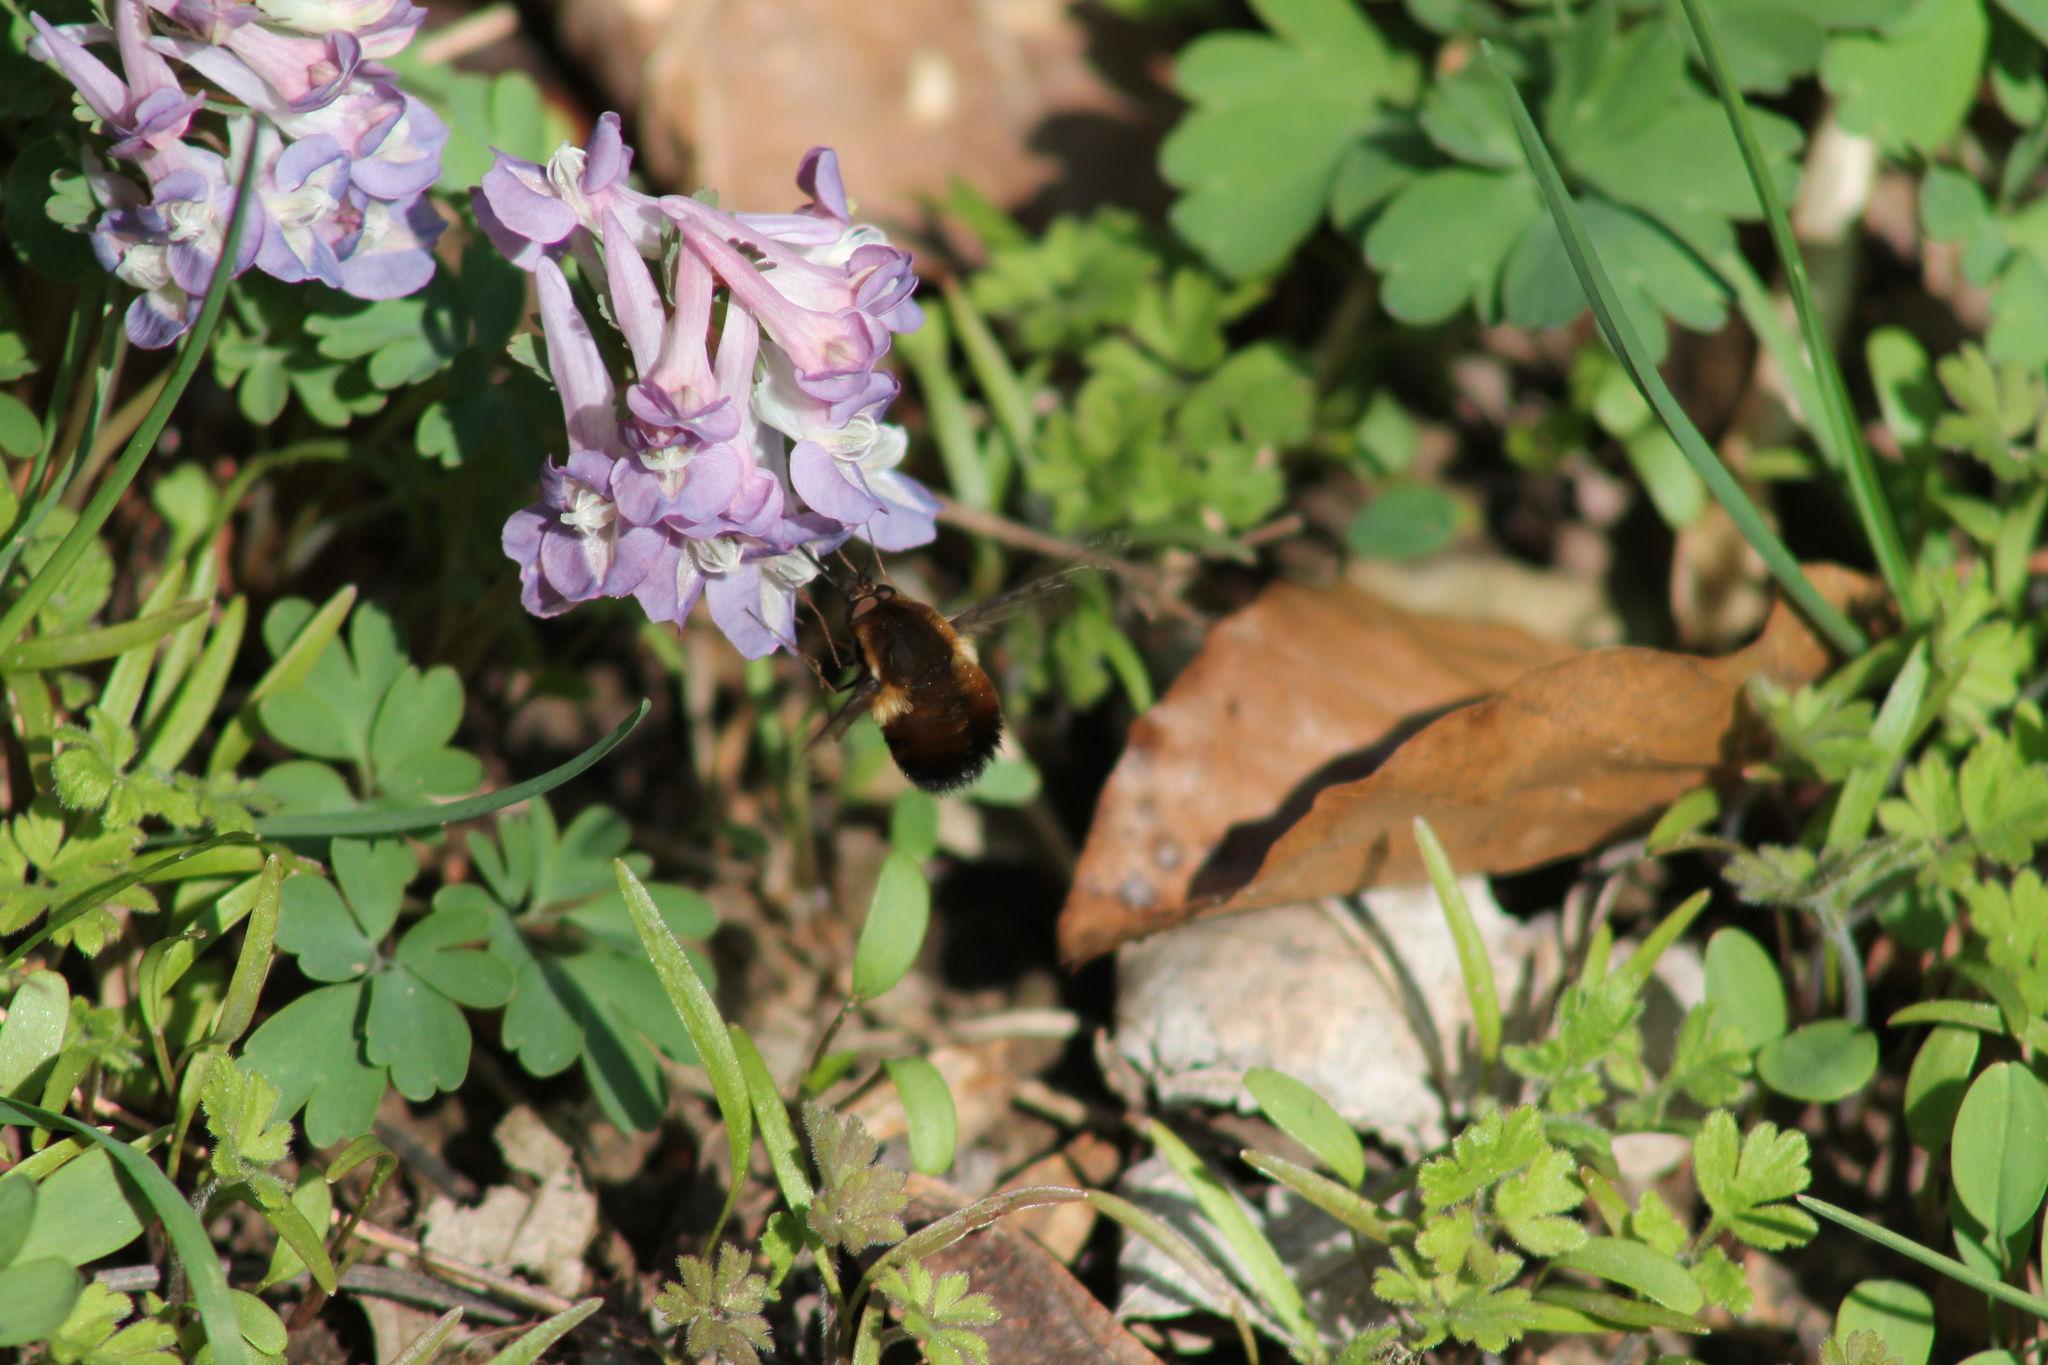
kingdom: Animalia
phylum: Arthropoda
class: Insecta
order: Diptera
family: Bombyliidae
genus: Bombylius
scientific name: Bombylius discolor
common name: Dotted bee-fly
